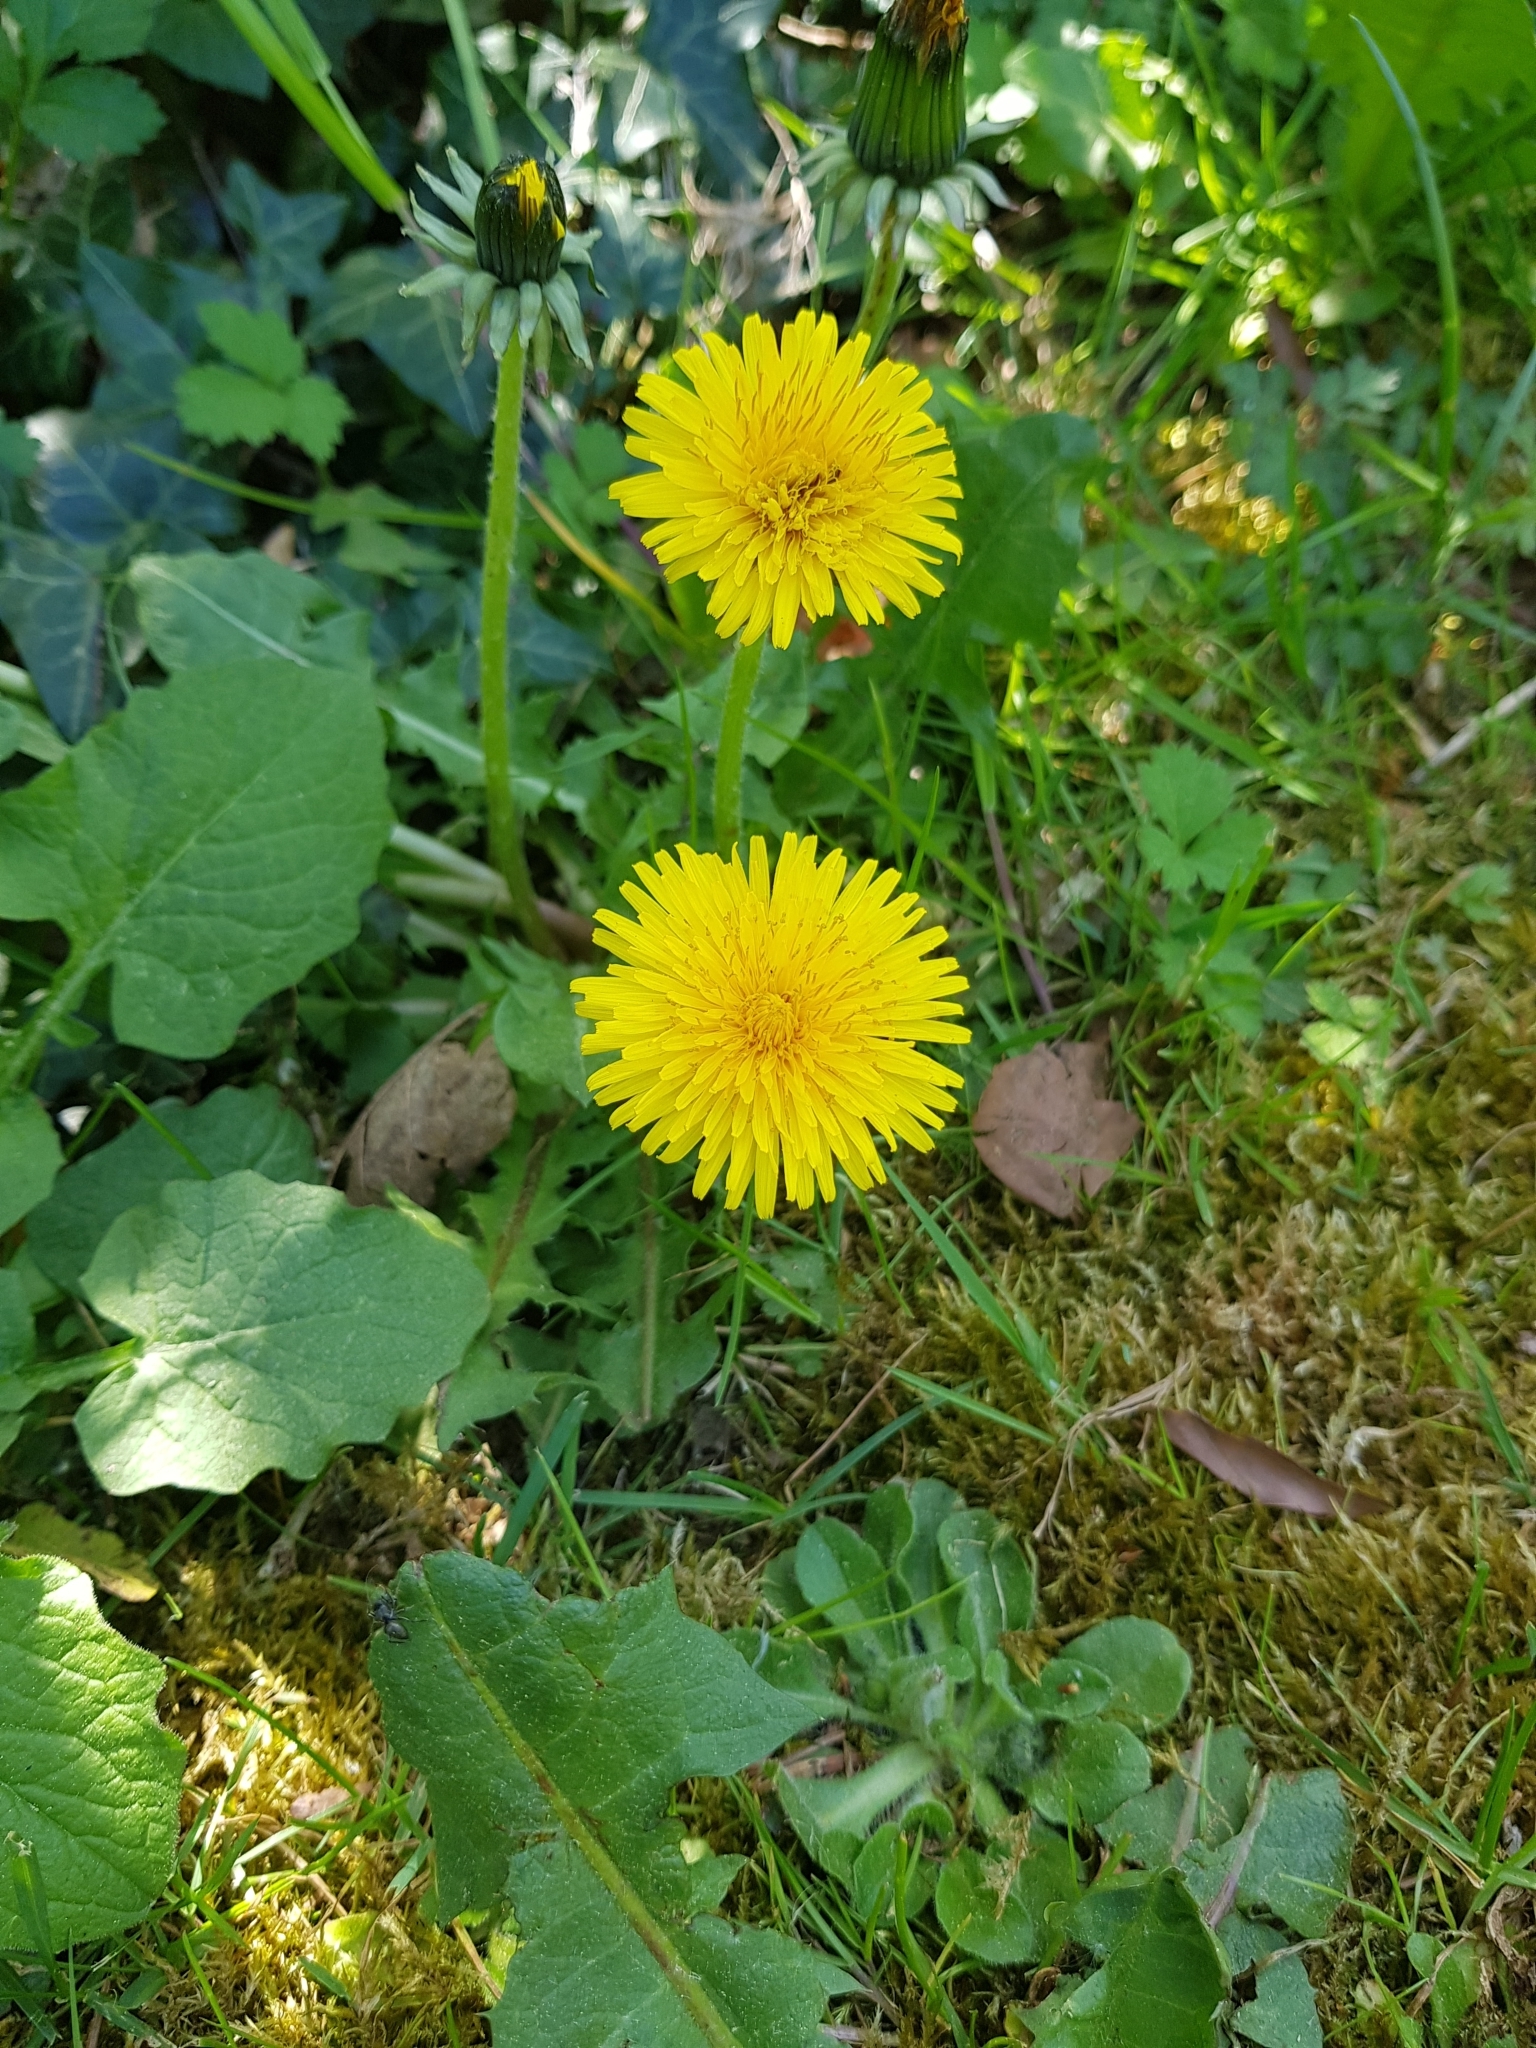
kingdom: Plantae
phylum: Tracheophyta
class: Magnoliopsida
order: Asterales
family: Asteraceae
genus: Taraxacum
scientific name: Taraxacum officinale
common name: Common dandelion
